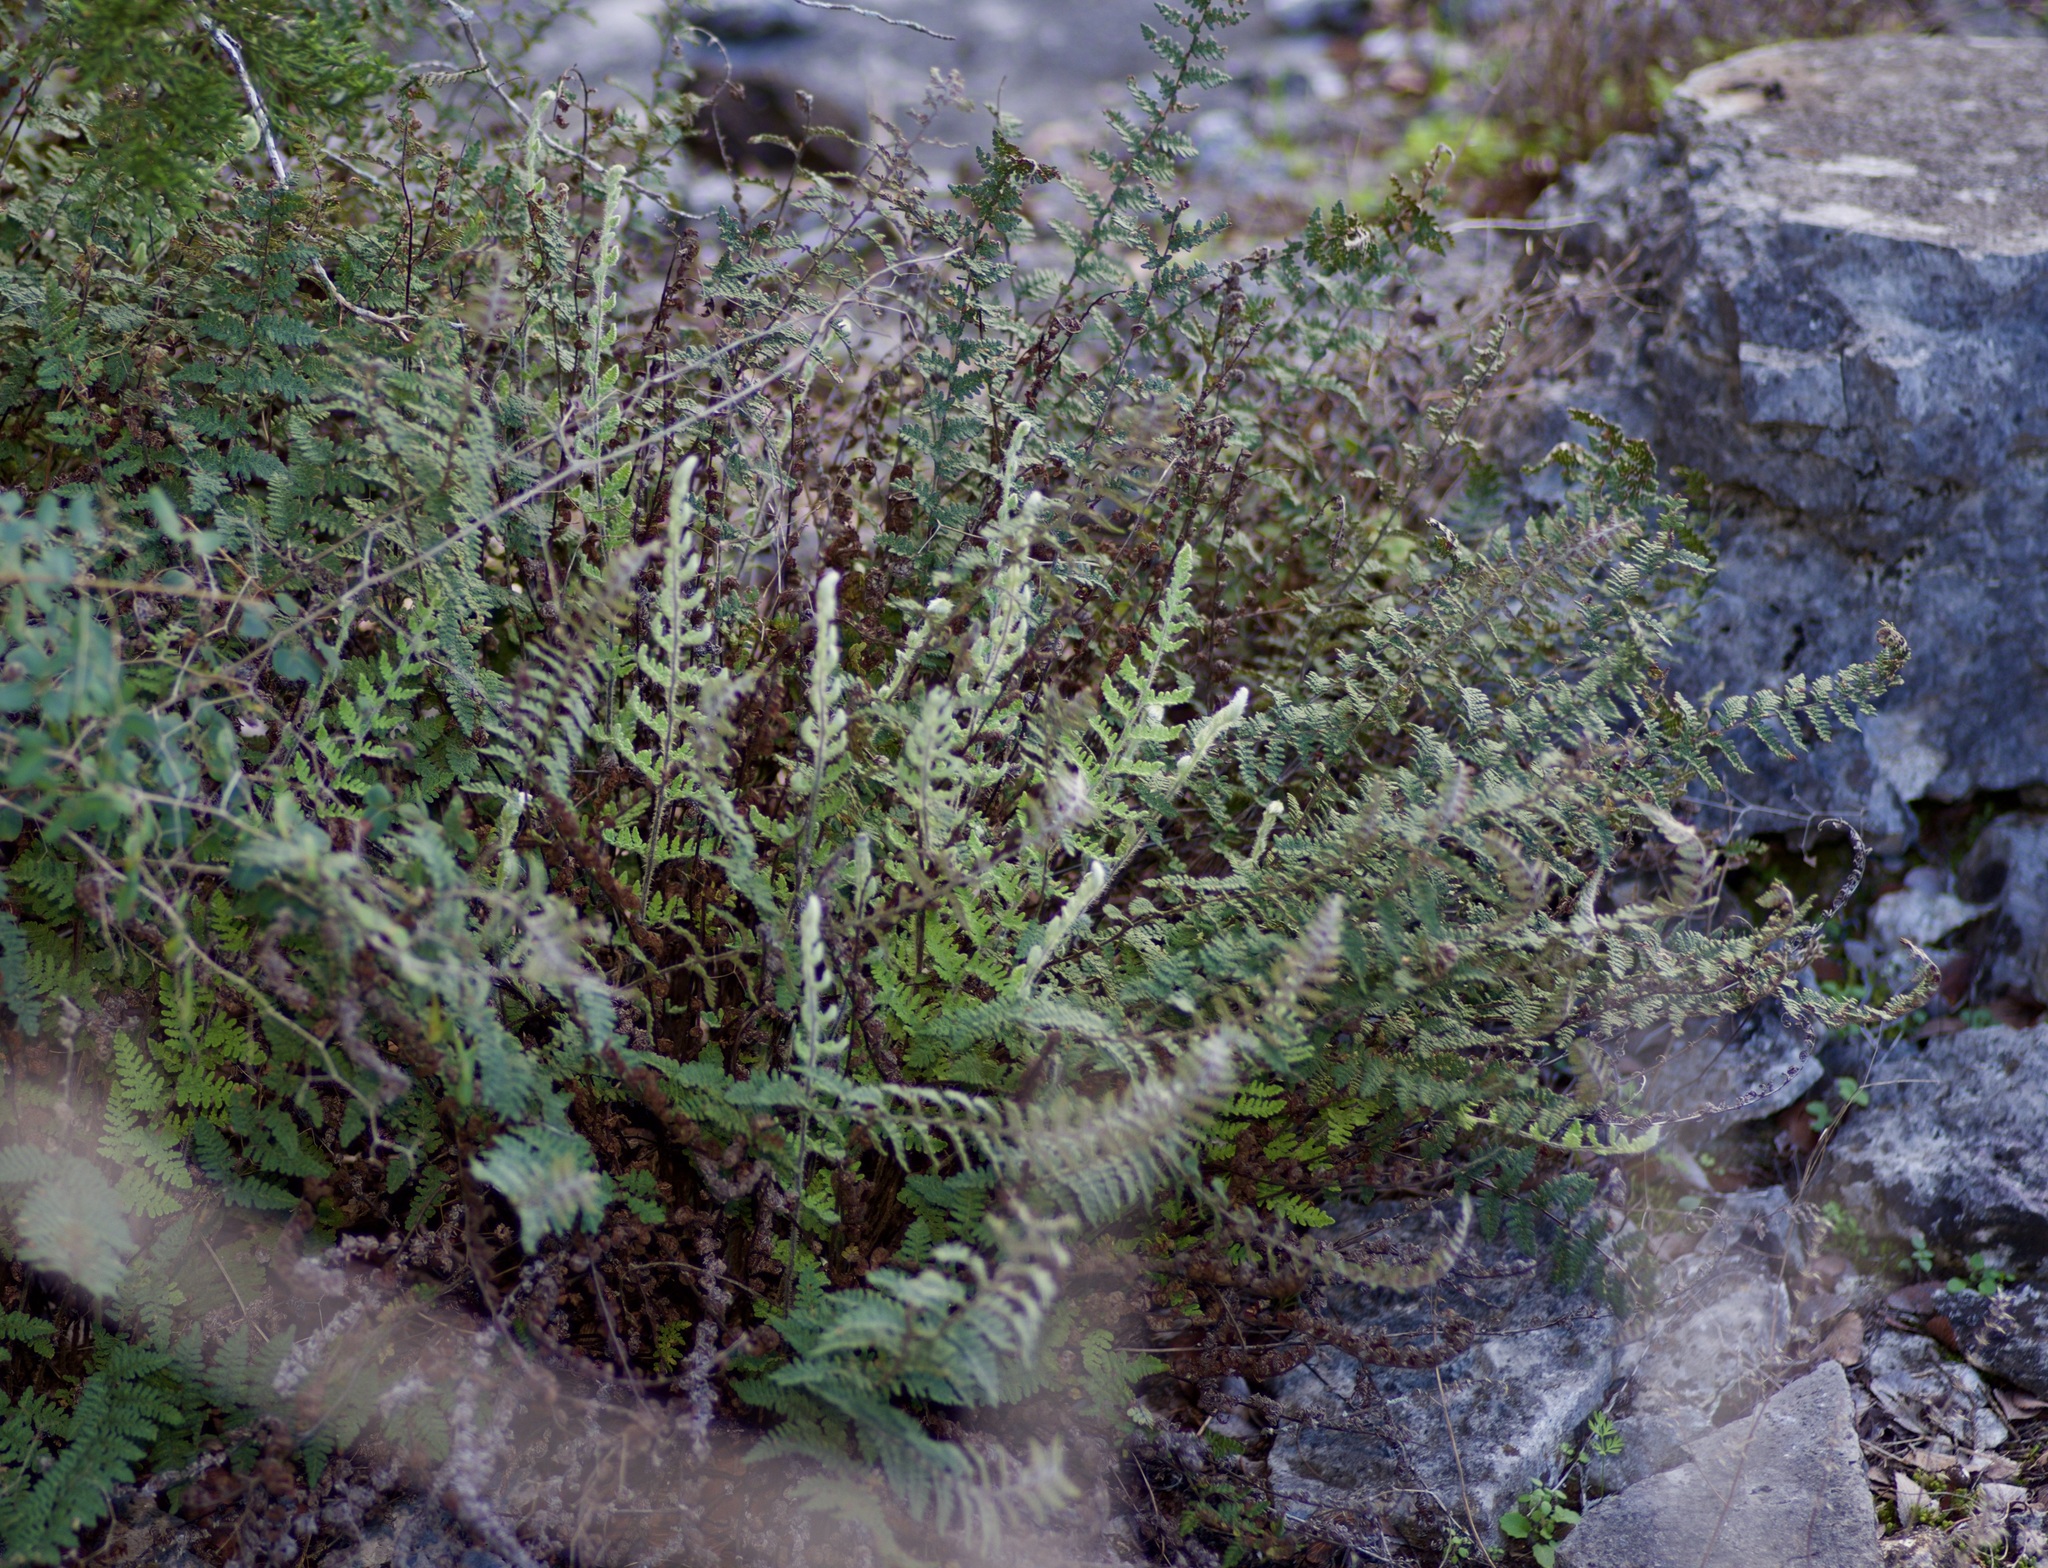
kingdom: Plantae
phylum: Tracheophyta
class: Polypodiopsida
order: Polypodiales
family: Pteridaceae
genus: Myriopteris
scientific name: Myriopteris tomentosa
